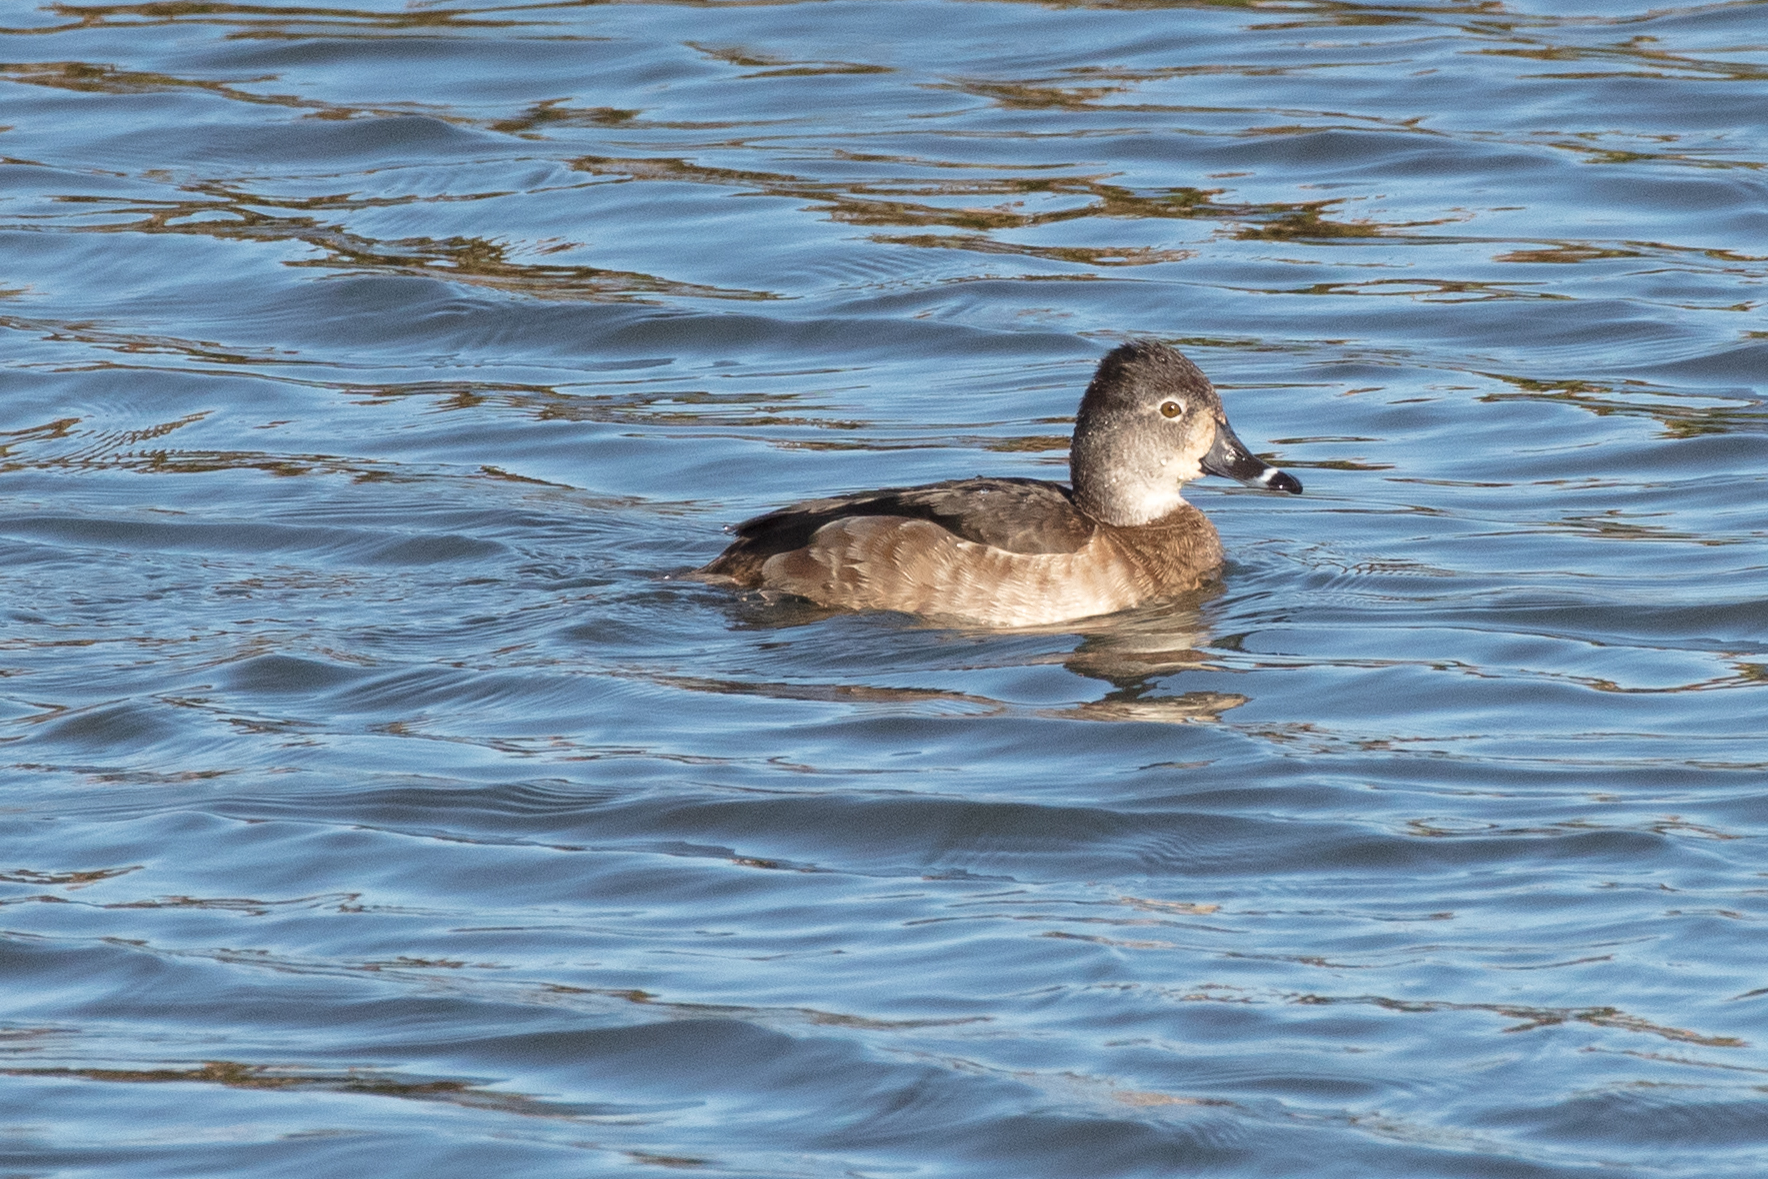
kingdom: Animalia
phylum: Chordata
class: Aves
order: Anseriformes
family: Anatidae
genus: Aythya
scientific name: Aythya collaris
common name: Ring-necked duck
